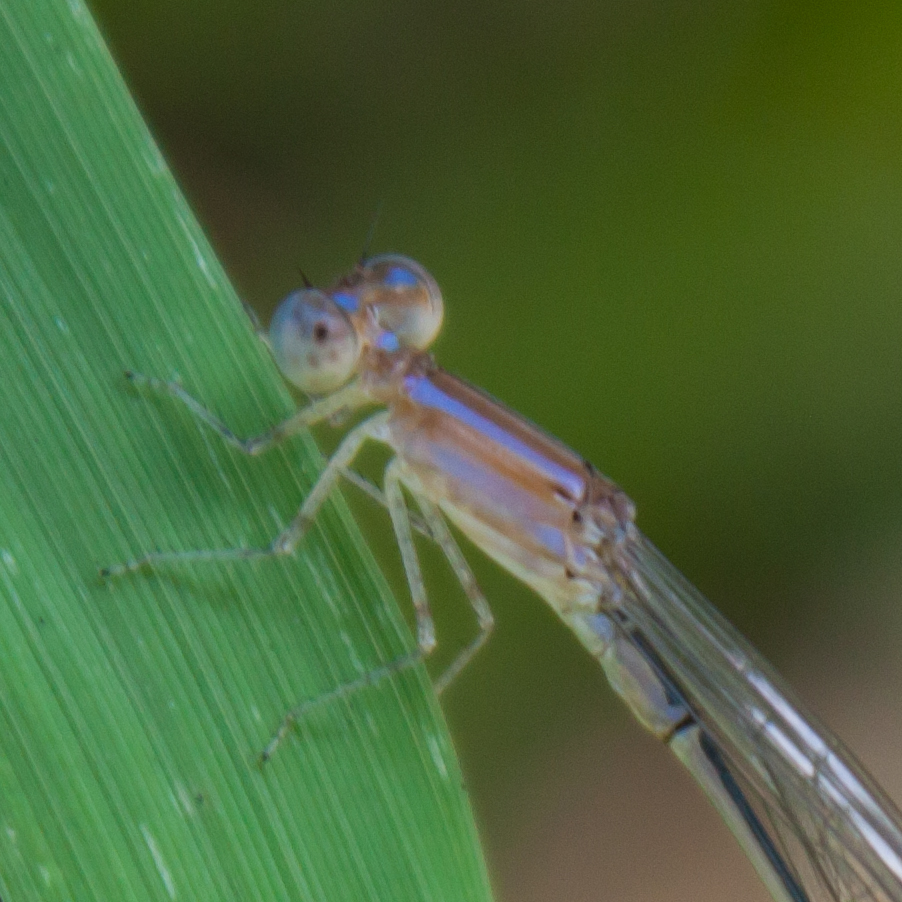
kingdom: Animalia
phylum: Arthropoda
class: Insecta
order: Odonata
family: Coenagrionidae
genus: Aciagrion
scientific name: Aciagrion hisopa
